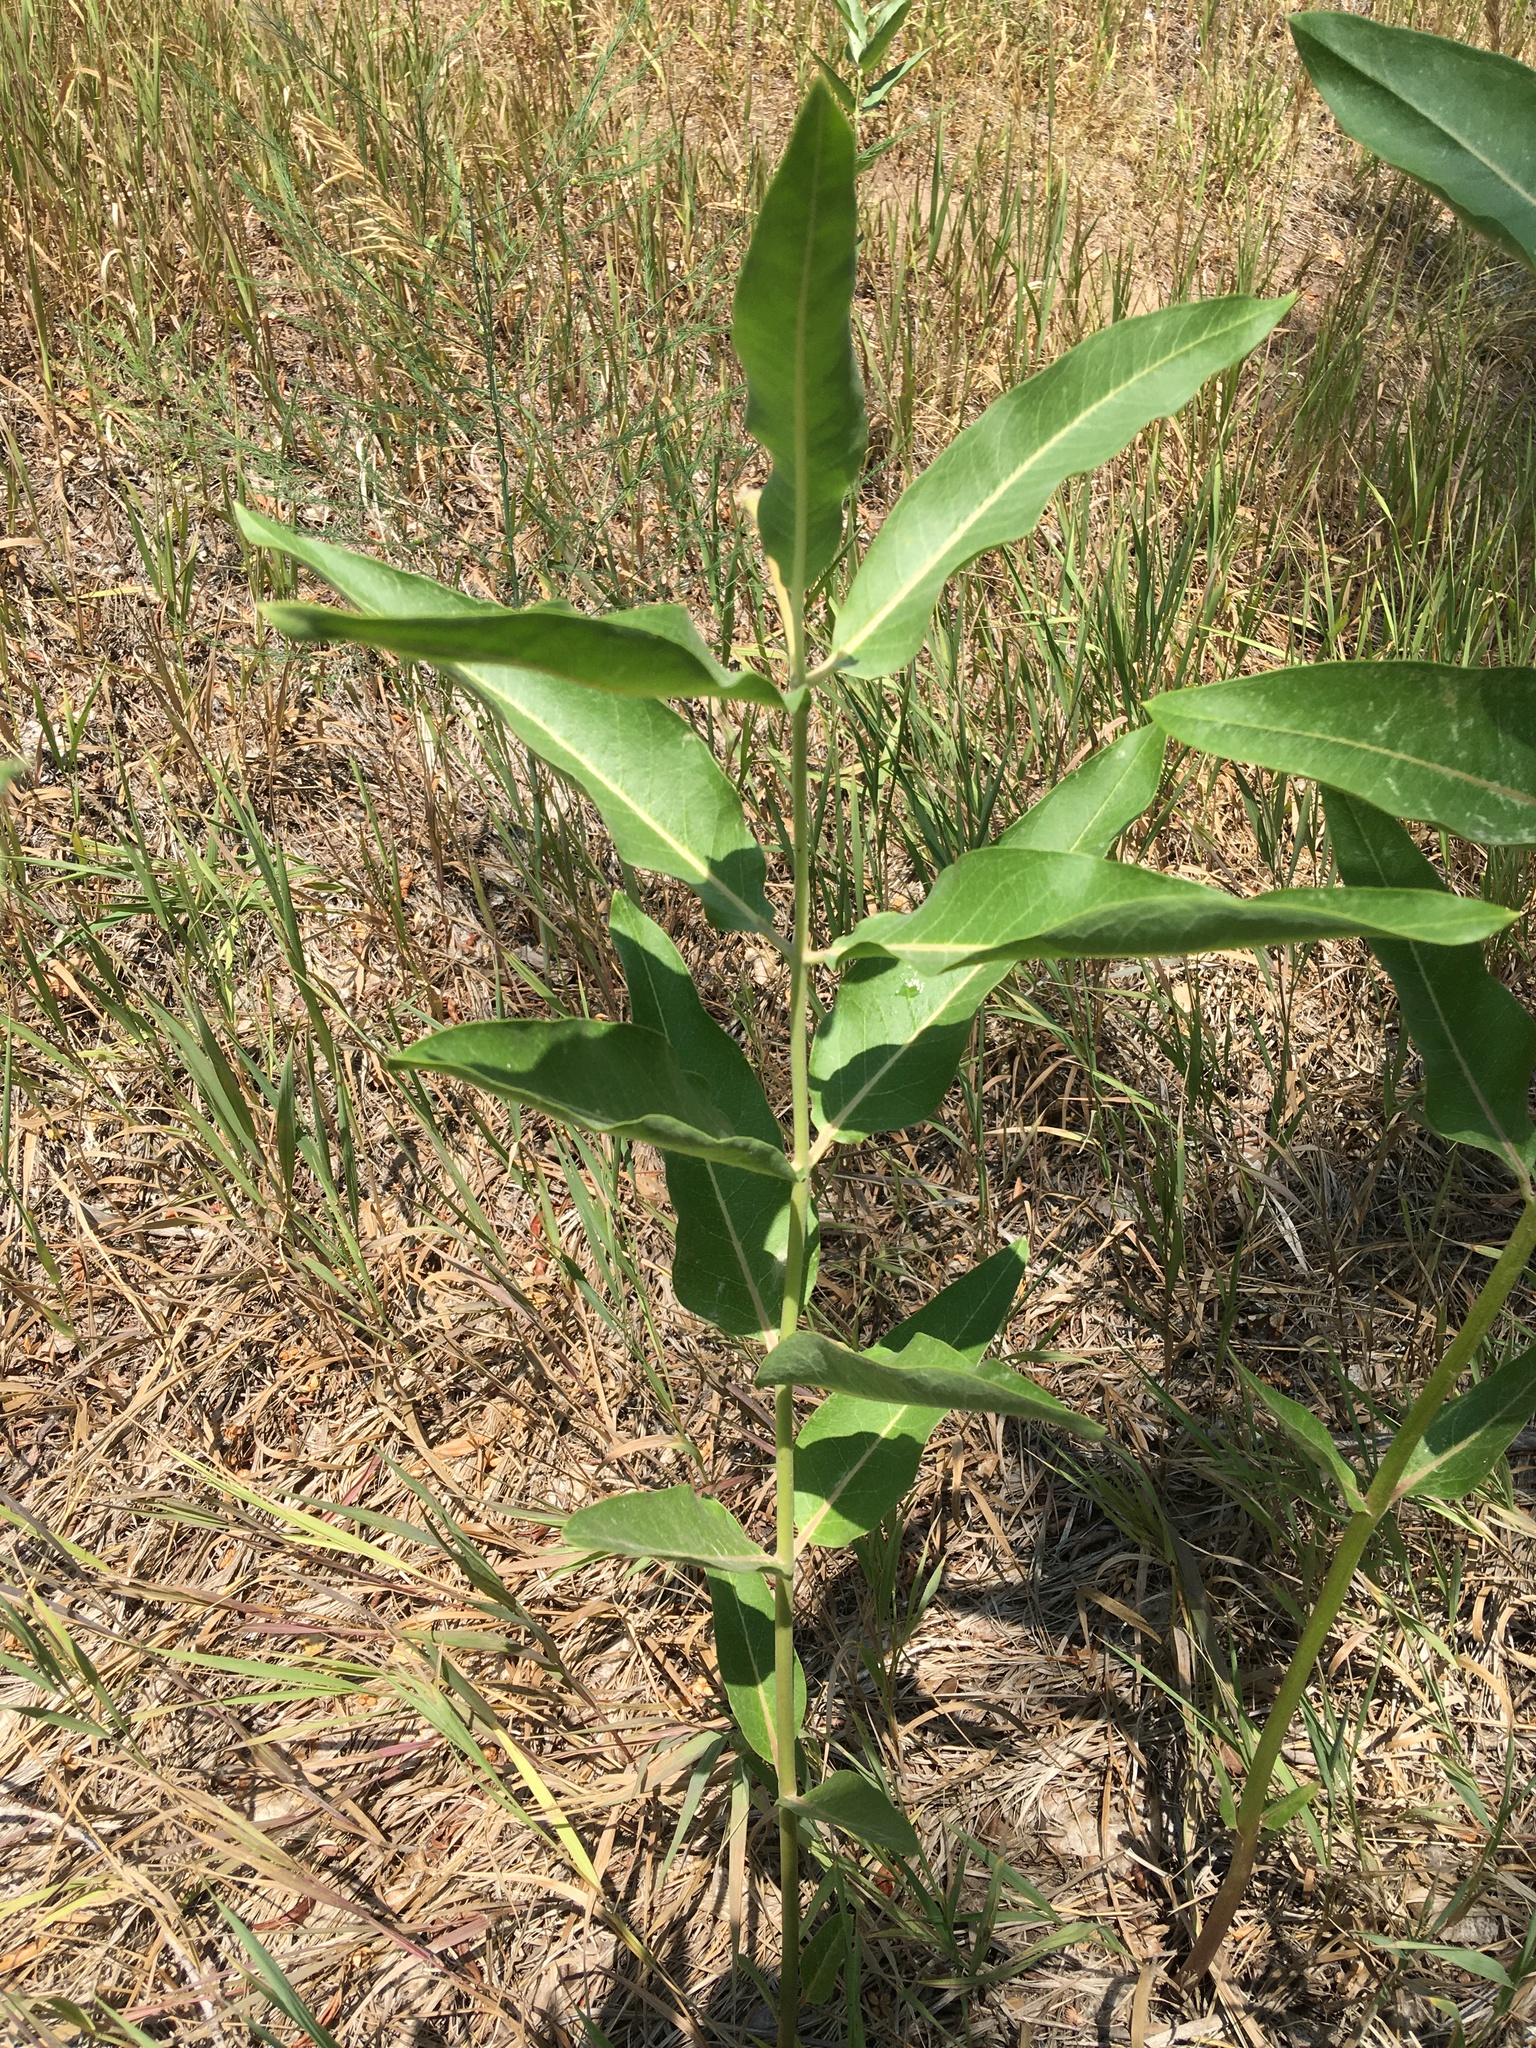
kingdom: Plantae
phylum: Tracheophyta
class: Magnoliopsida
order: Gentianales
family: Apocynaceae
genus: Asclepias
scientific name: Asclepias speciosa
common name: Showy milkweed
